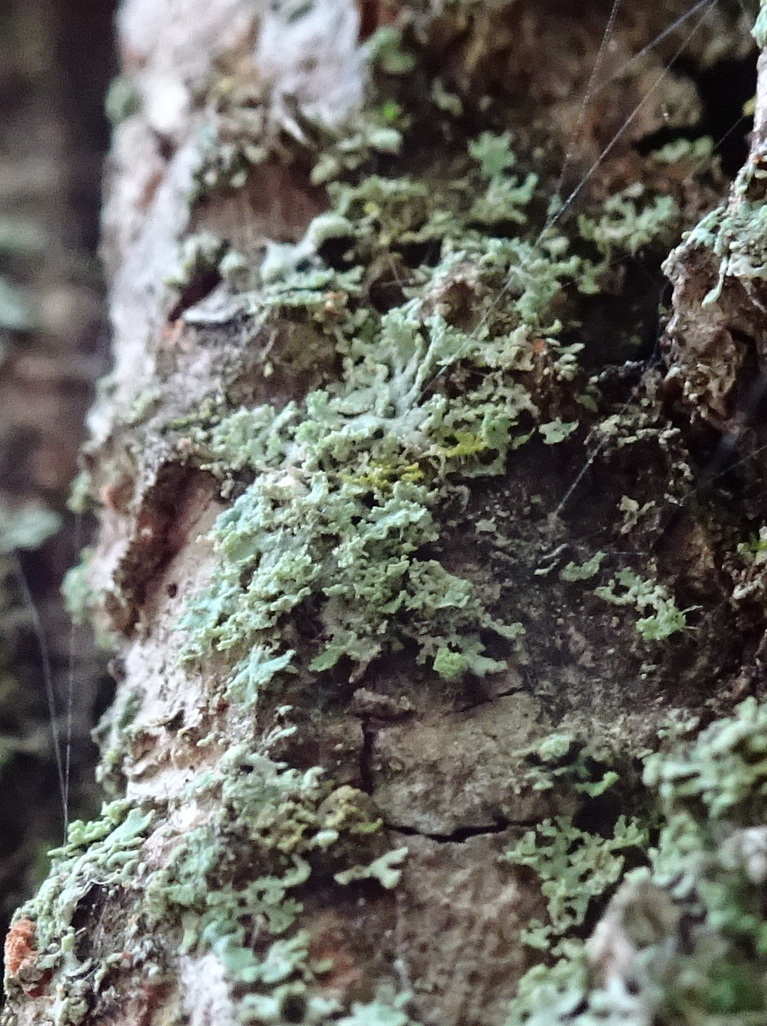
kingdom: Fungi
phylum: Ascomycota
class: Lecanoromycetes
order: Caliciales
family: Physciaceae
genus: Physcia
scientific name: Physcia millegrana
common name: Rosette lichen
